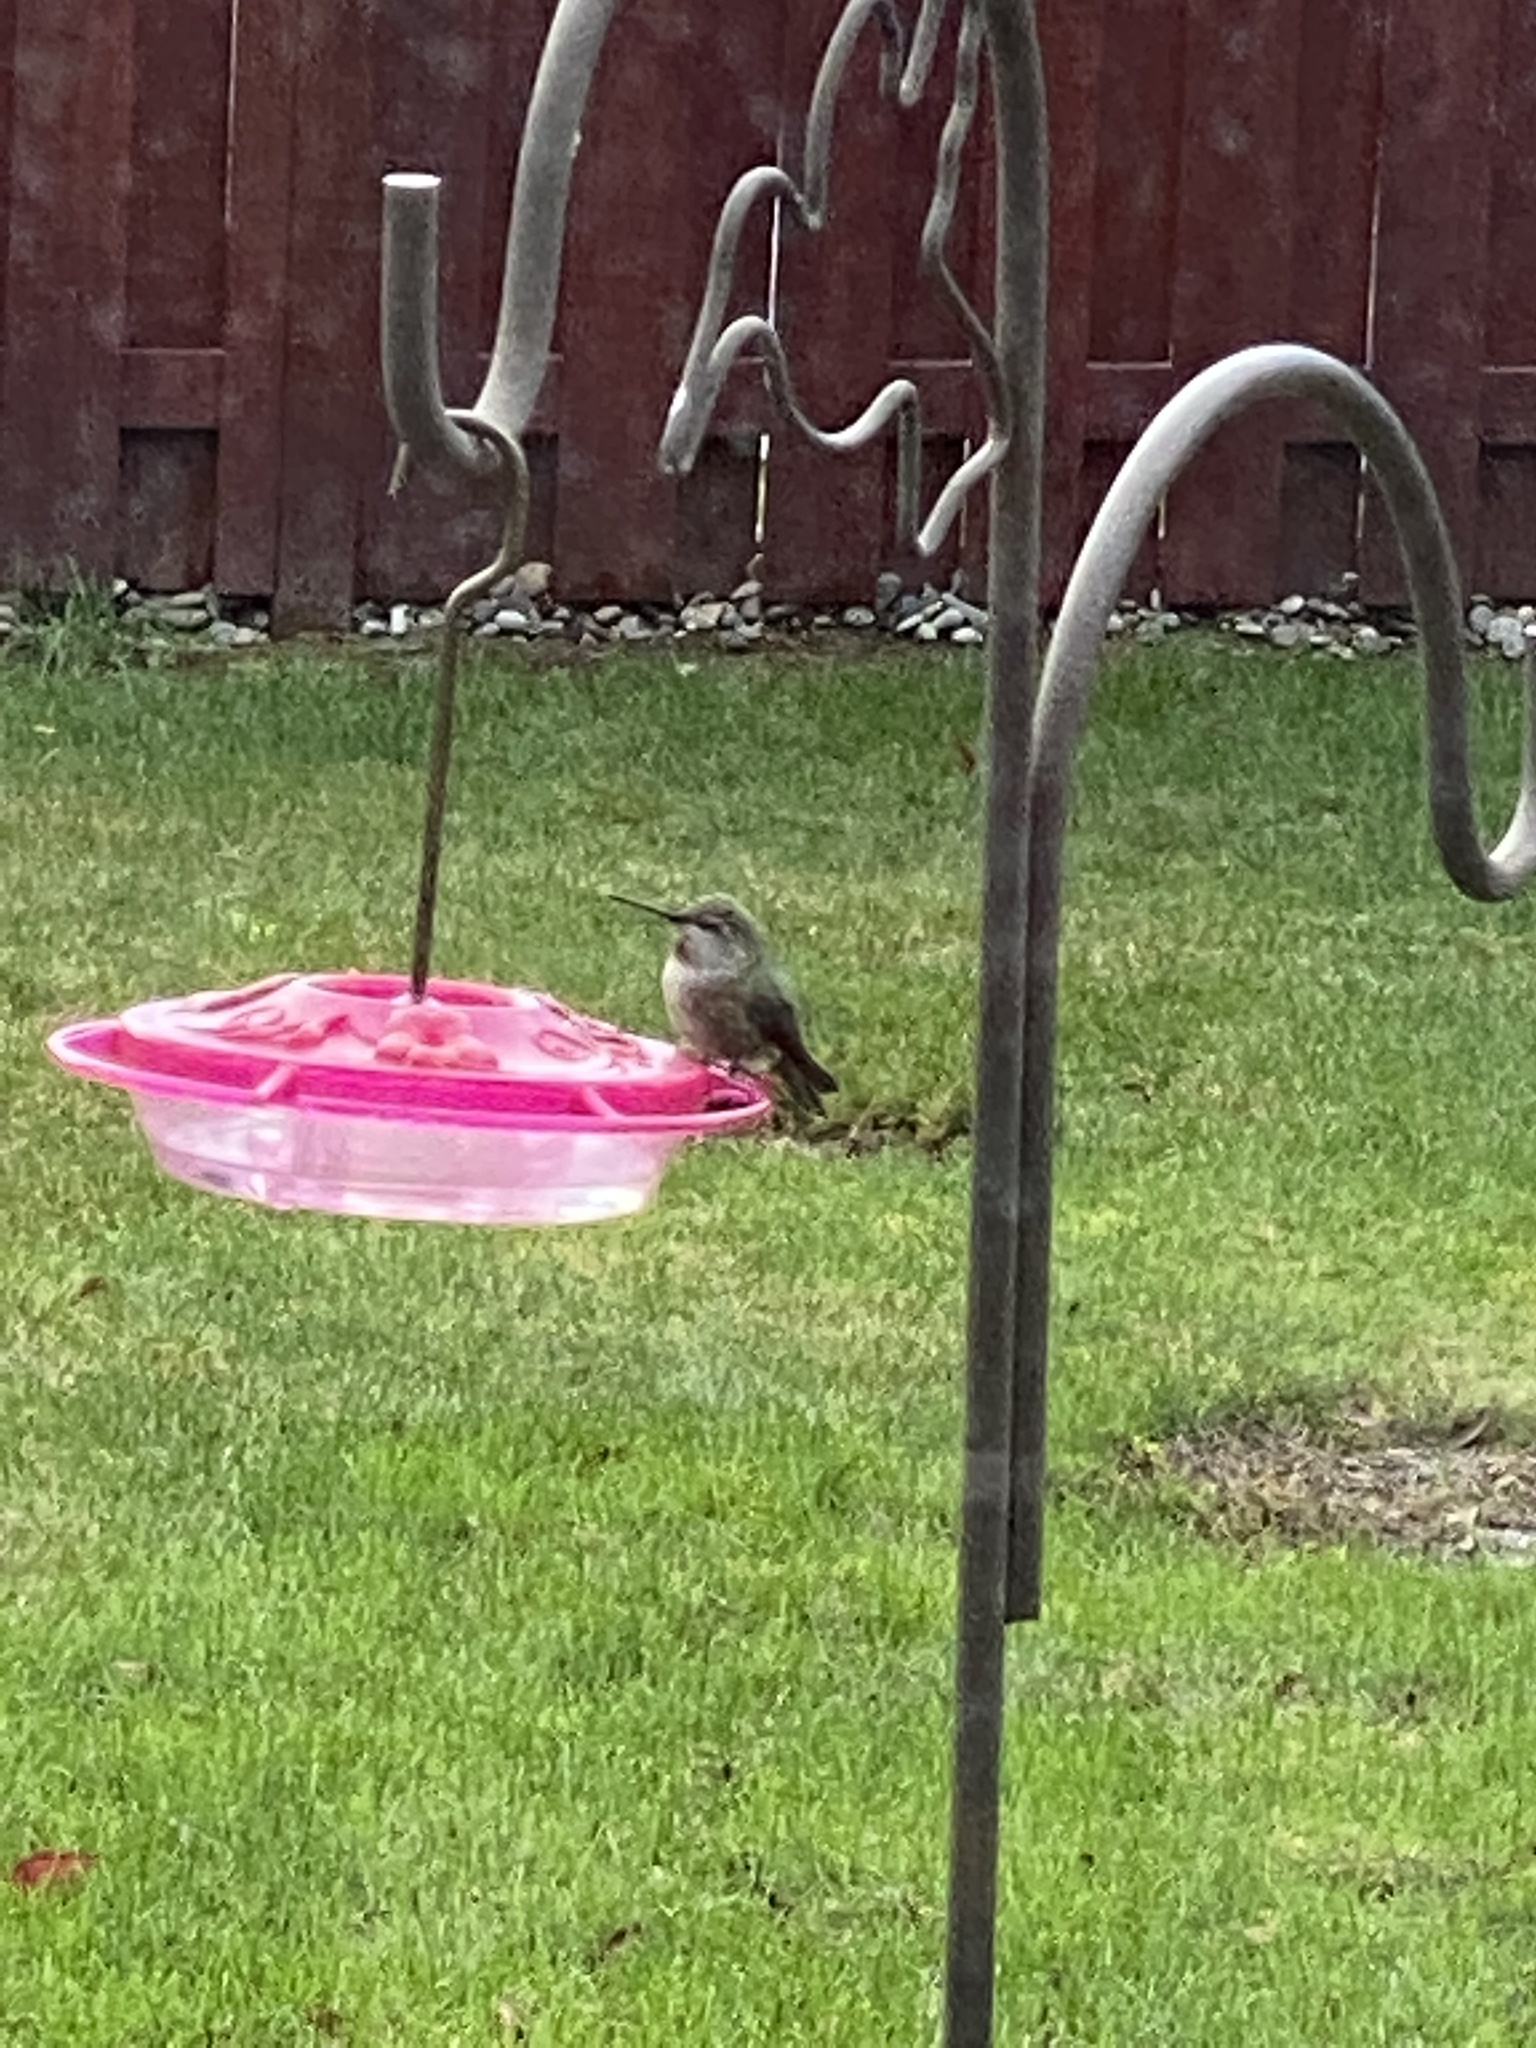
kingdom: Animalia
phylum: Chordata
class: Aves
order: Apodiformes
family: Trochilidae
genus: Calypte
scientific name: Calypte anna
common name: Anna's hummingbird
